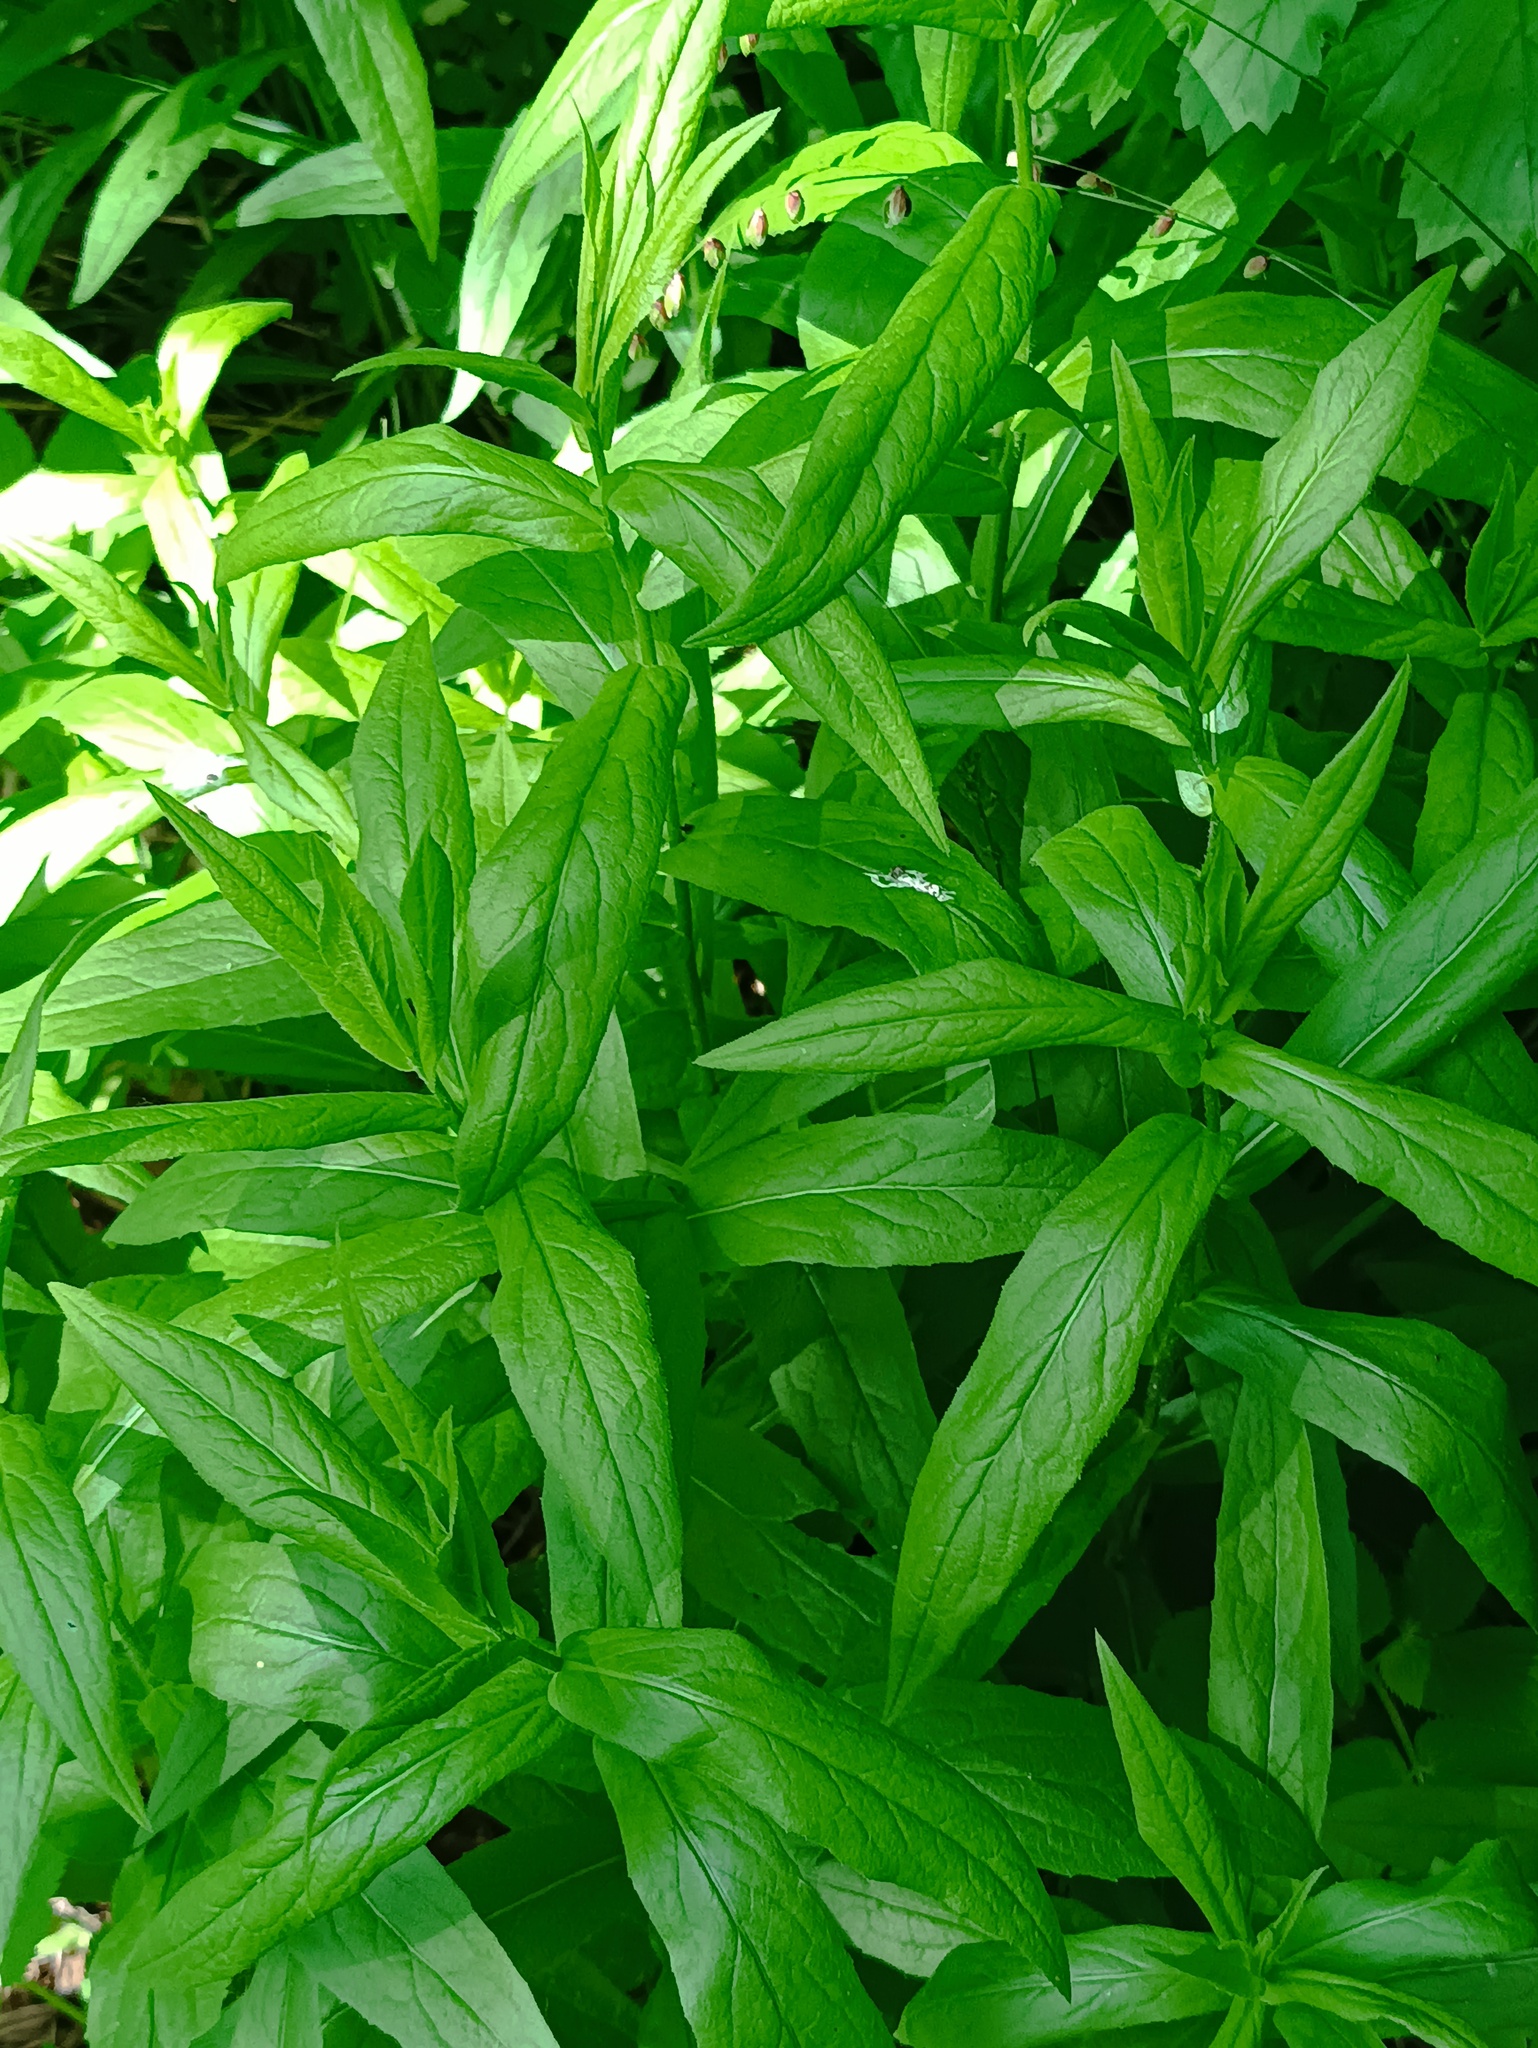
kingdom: Plantae
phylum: Tracheophyta
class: Magnoliopsida
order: Lamiales
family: Lamiaceae
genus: Stachys
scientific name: Stachys palustris
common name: Marsh woundwort
